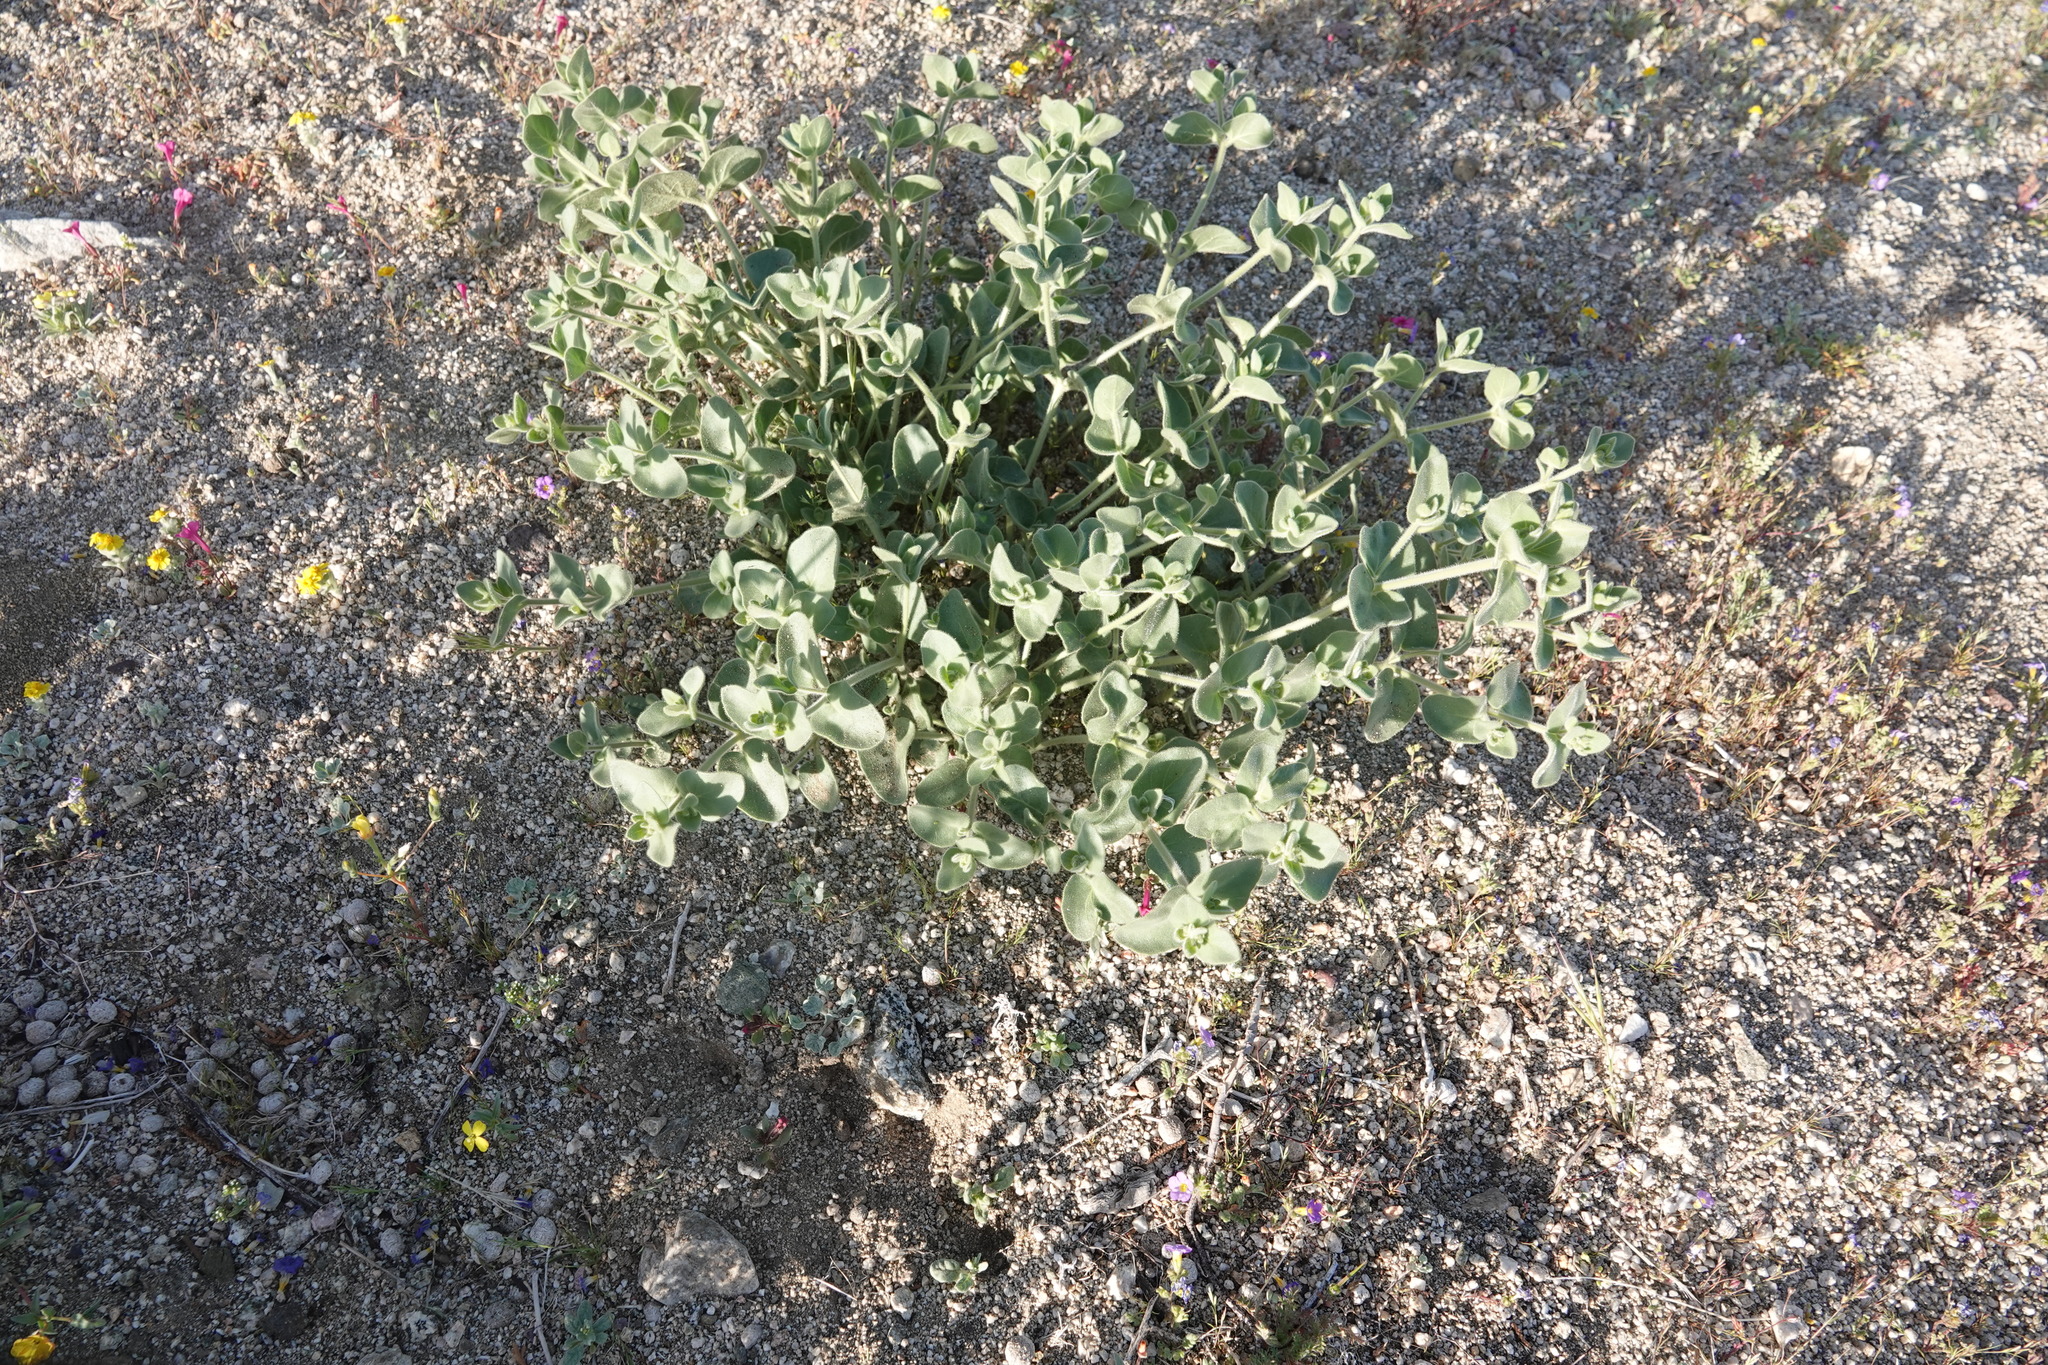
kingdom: Plantae
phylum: Tracheophyta
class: Magnoliopsida
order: Caryophyllales
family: Nyctaginaceae
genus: Mirabilis
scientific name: Mirabilis laevis
